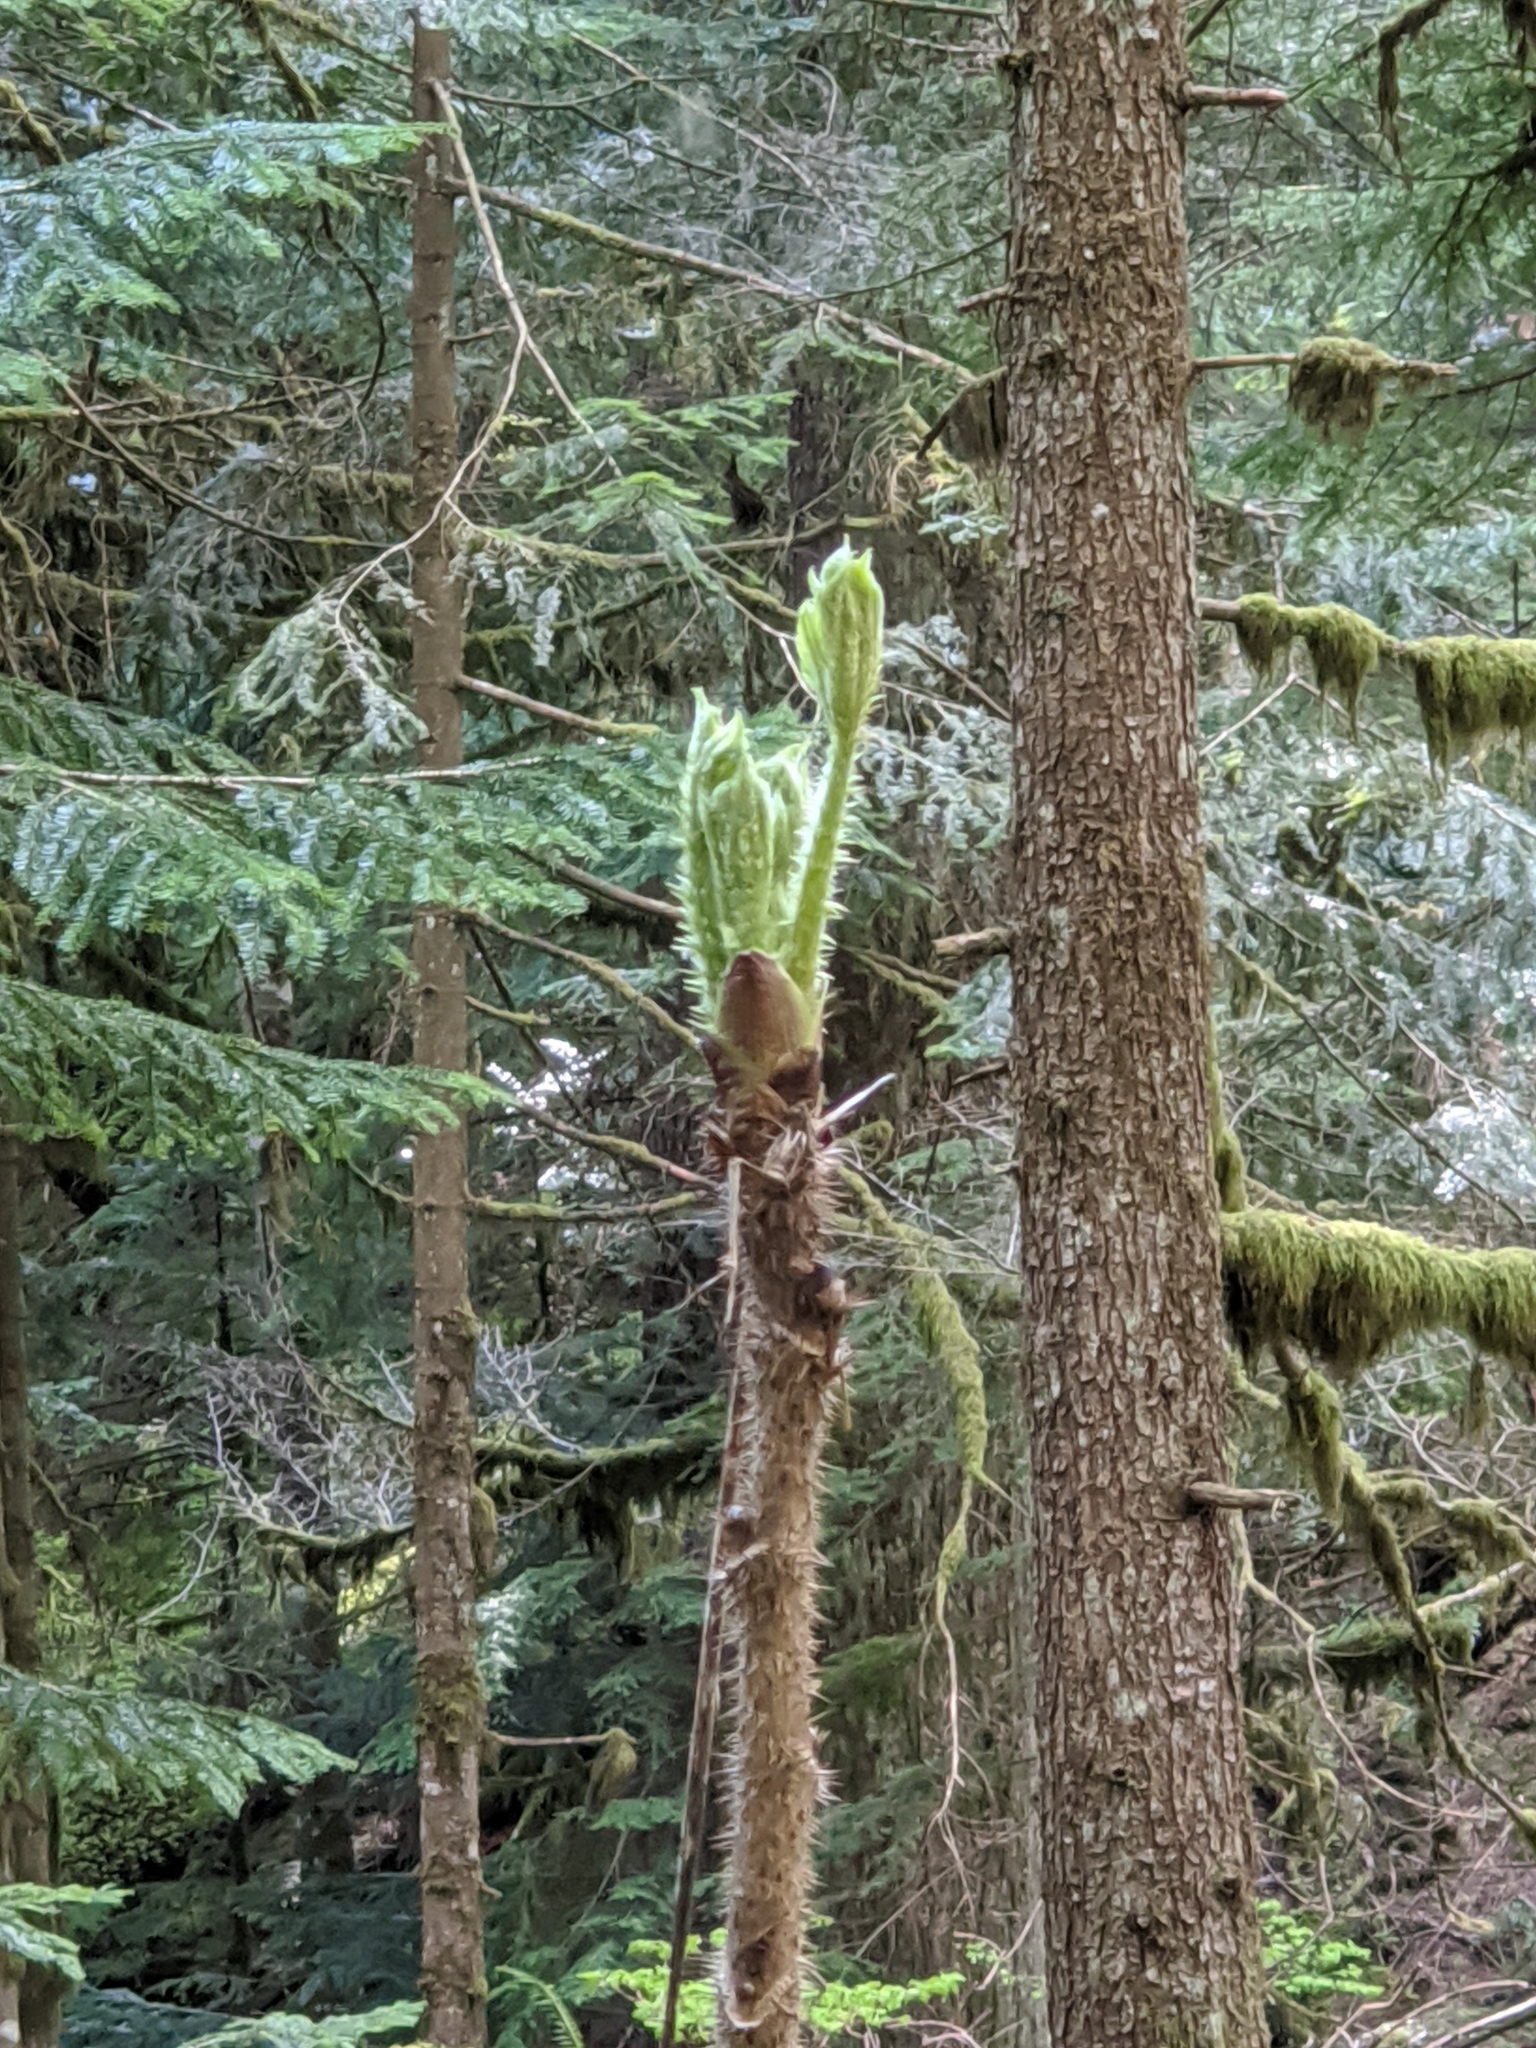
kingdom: Plantae
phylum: Tracheophyta
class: Magnoliopsida
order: Apiales
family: Araliaceae
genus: Oplopanax
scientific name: Oplopanax horridus
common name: Devil's walking-stick
